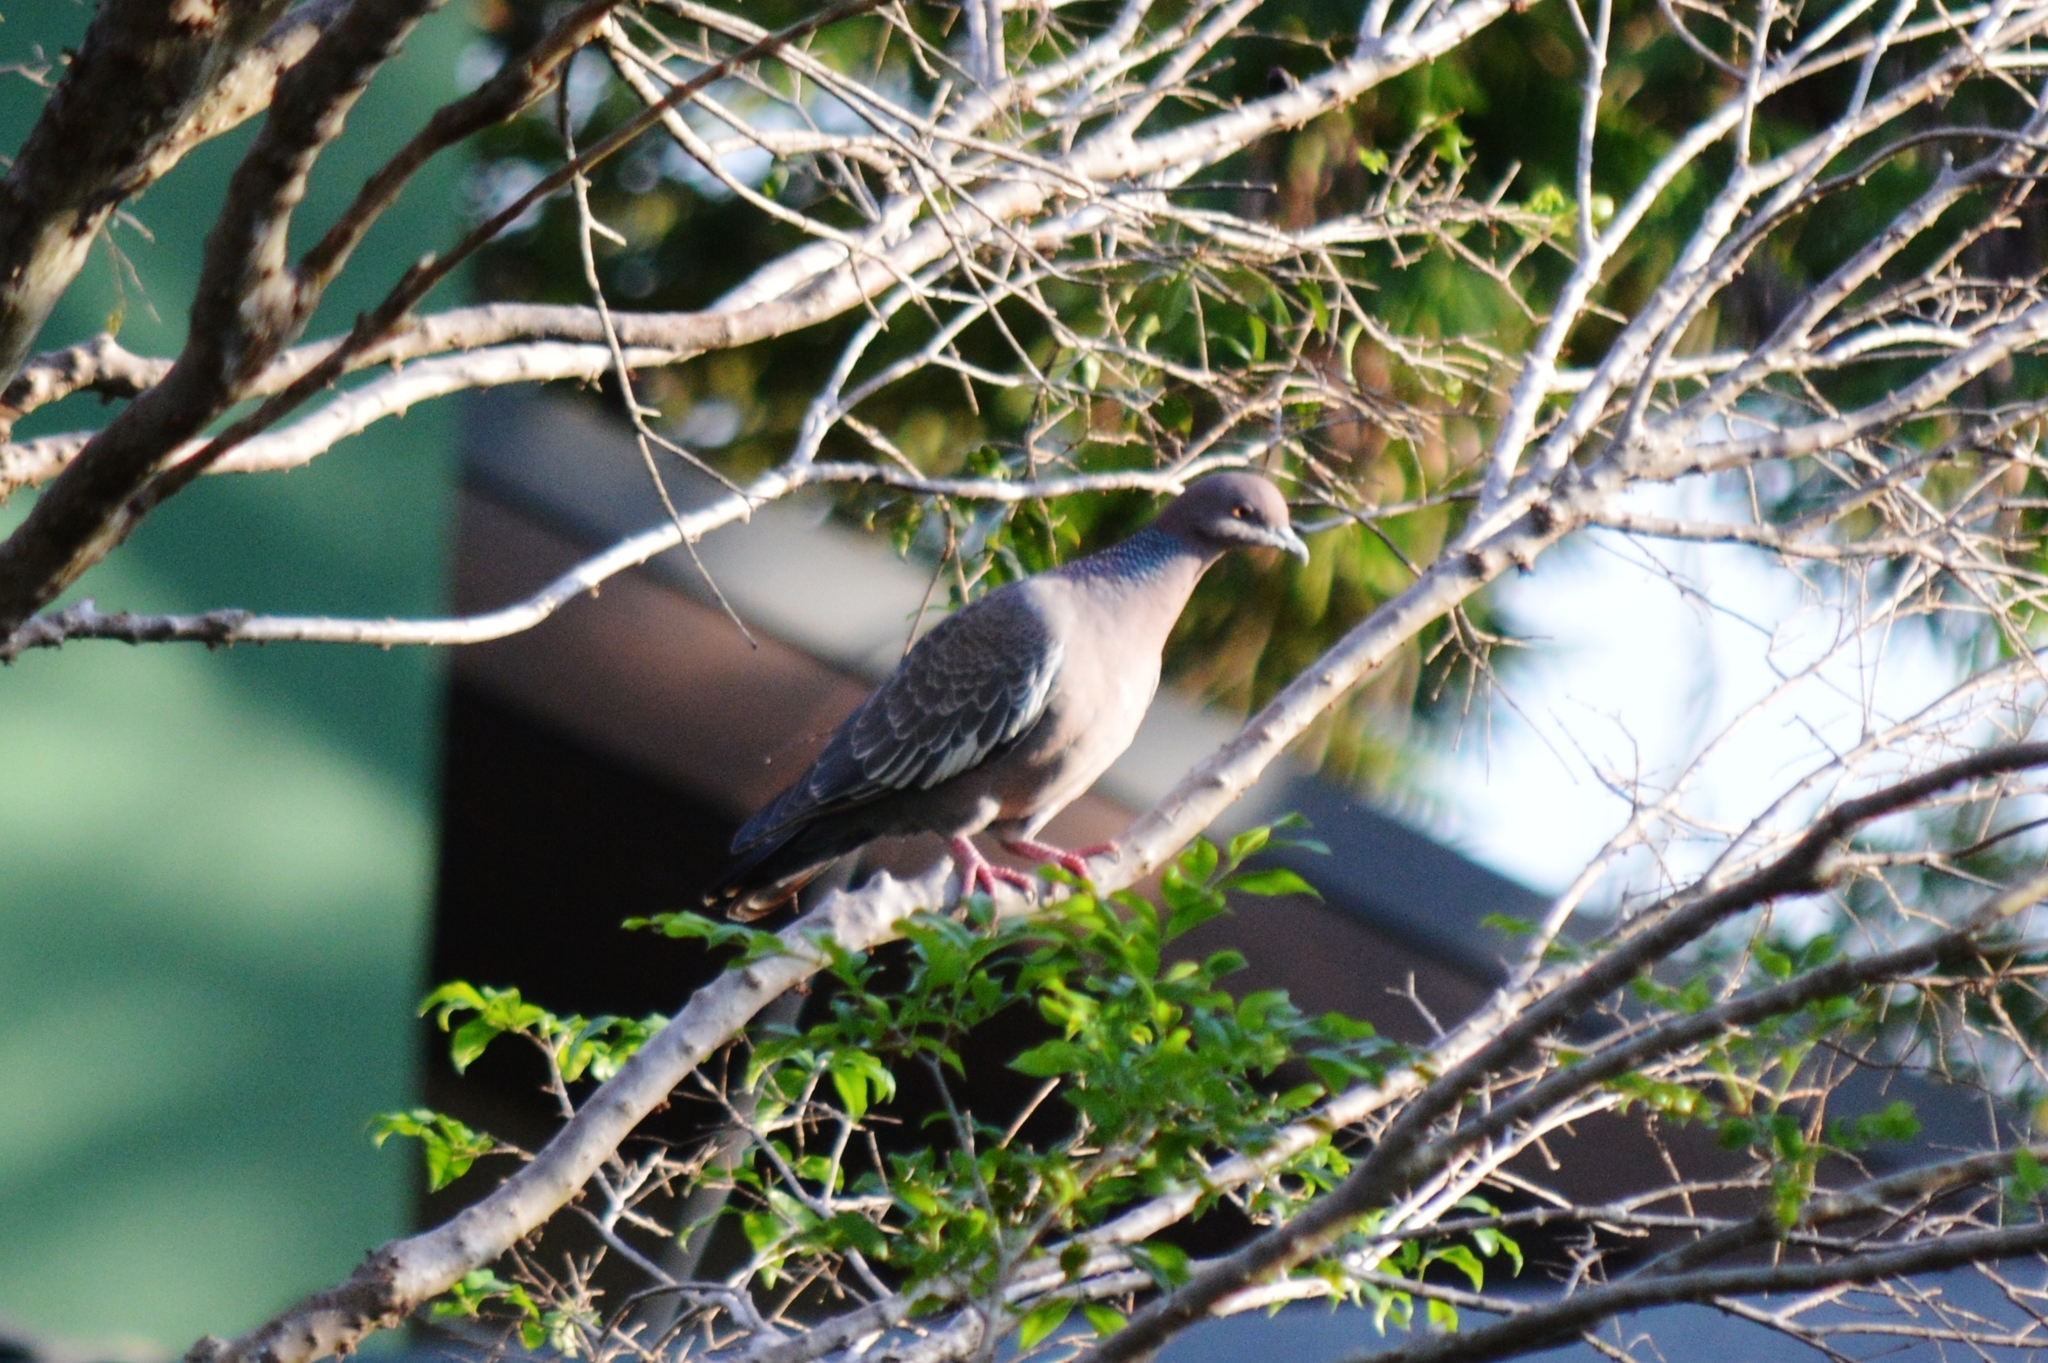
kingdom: Animalia
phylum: Chordata
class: Aves
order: Columbiformes
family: Columbidae
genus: Patagioenas
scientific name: Patagioenas picazuro
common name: Picazuro pigeon
